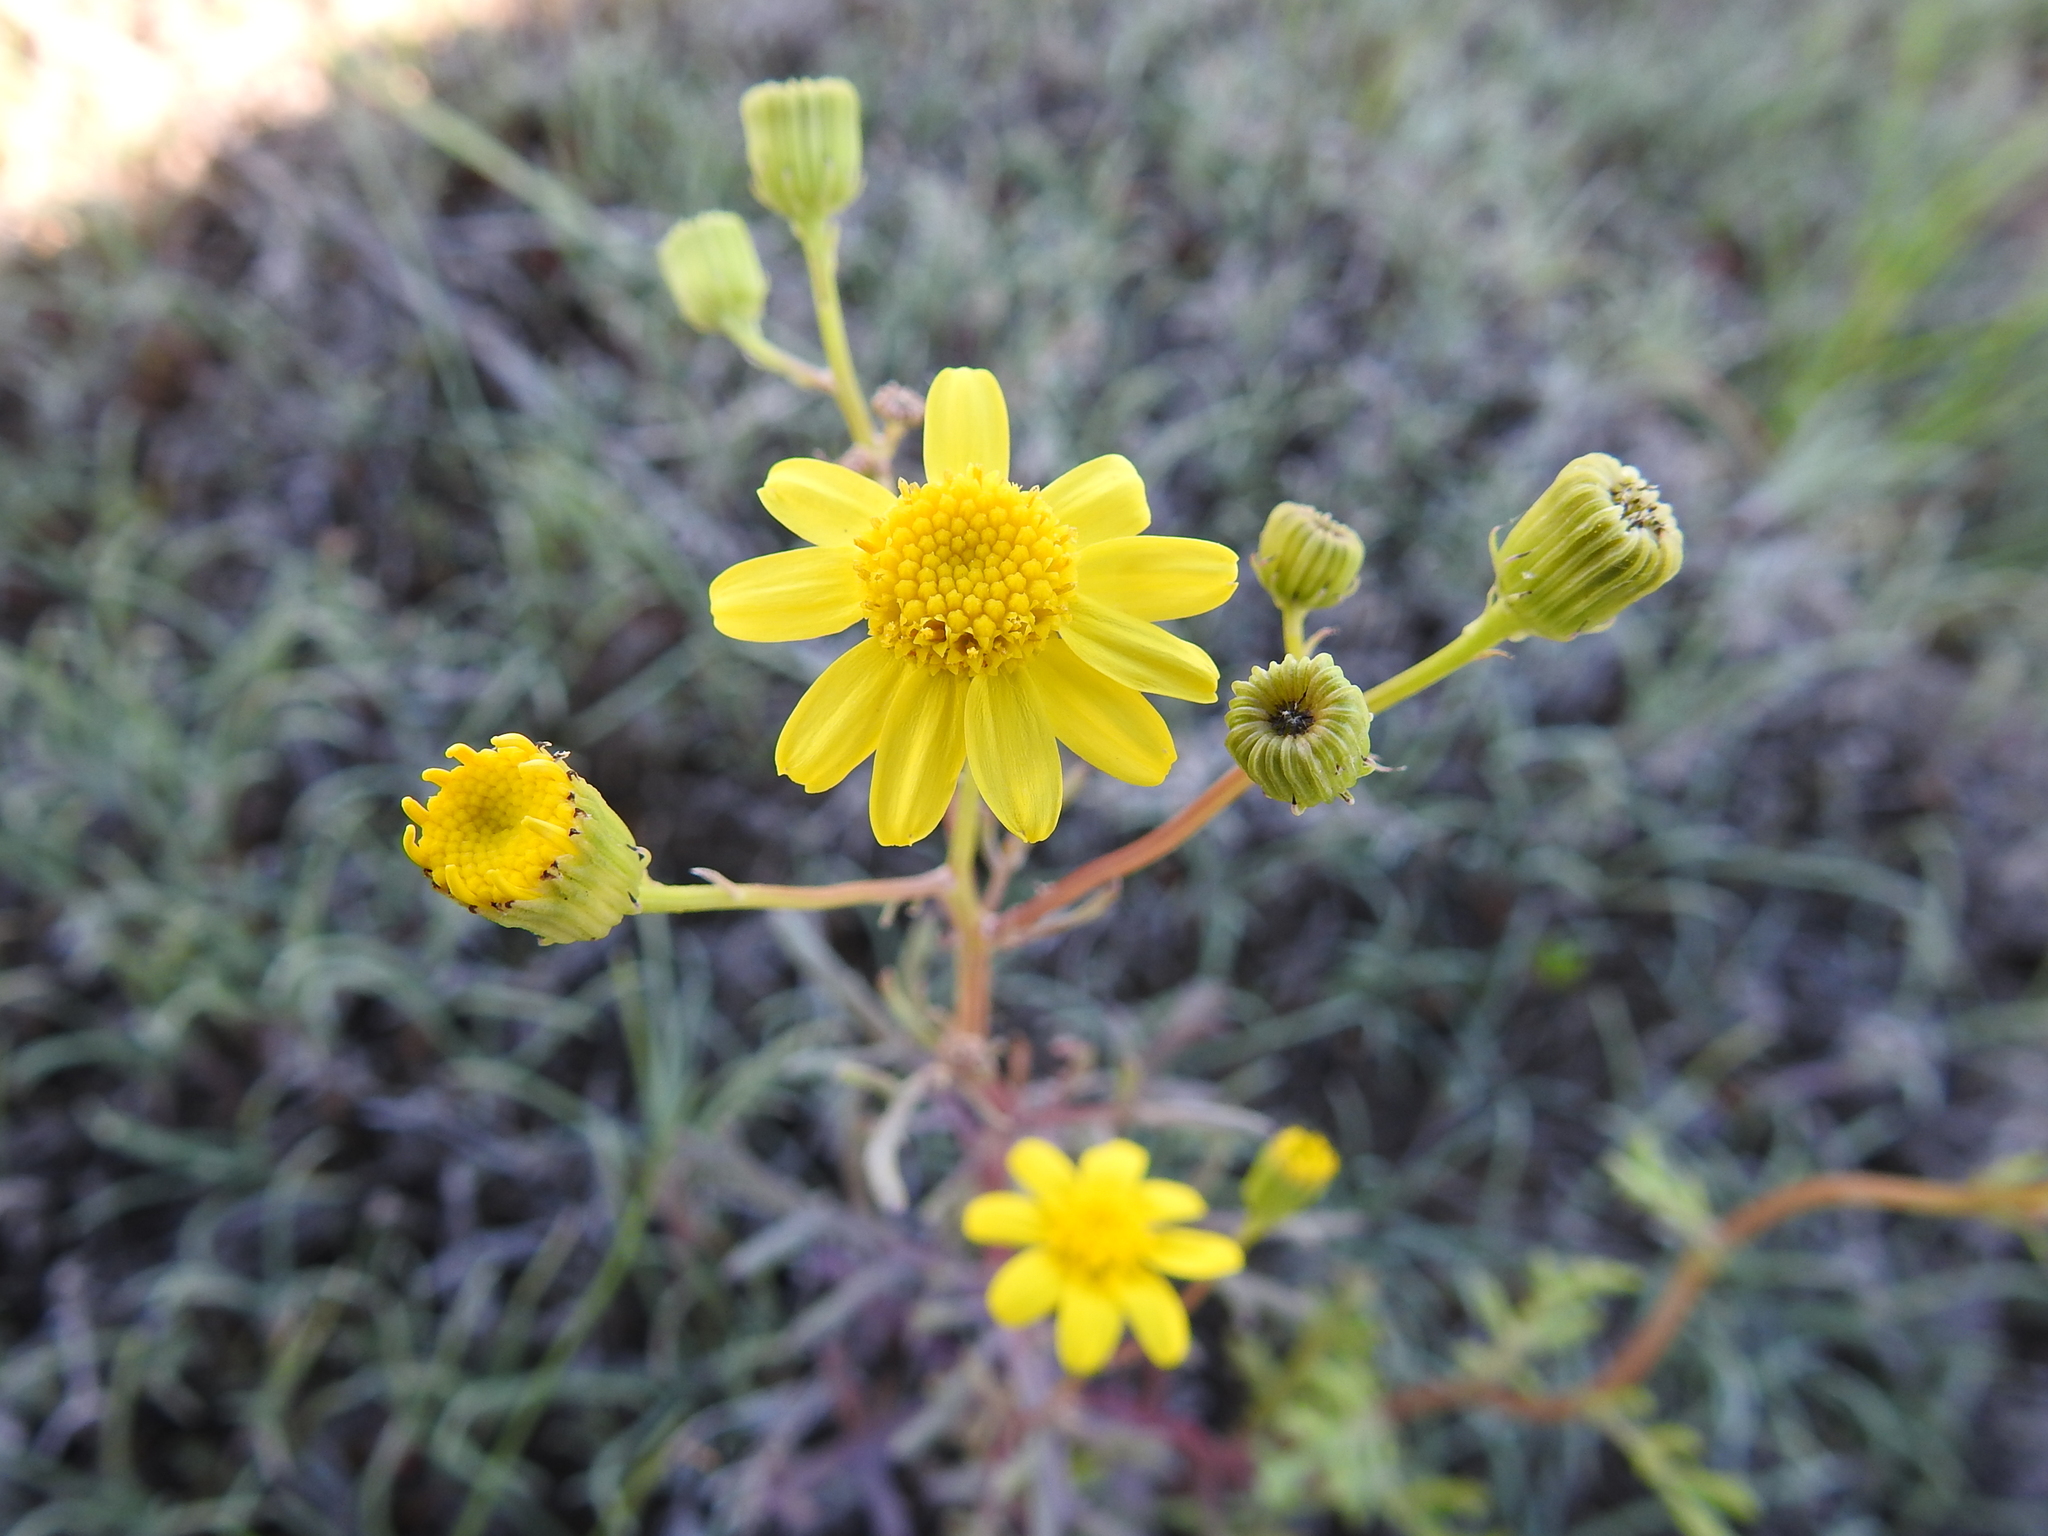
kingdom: Plantae
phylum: Tracheophyta
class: Magnoliopsida
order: Asterales
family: Asteraceae
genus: Senecio
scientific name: Senecio vernalis
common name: Eastern groundsel
